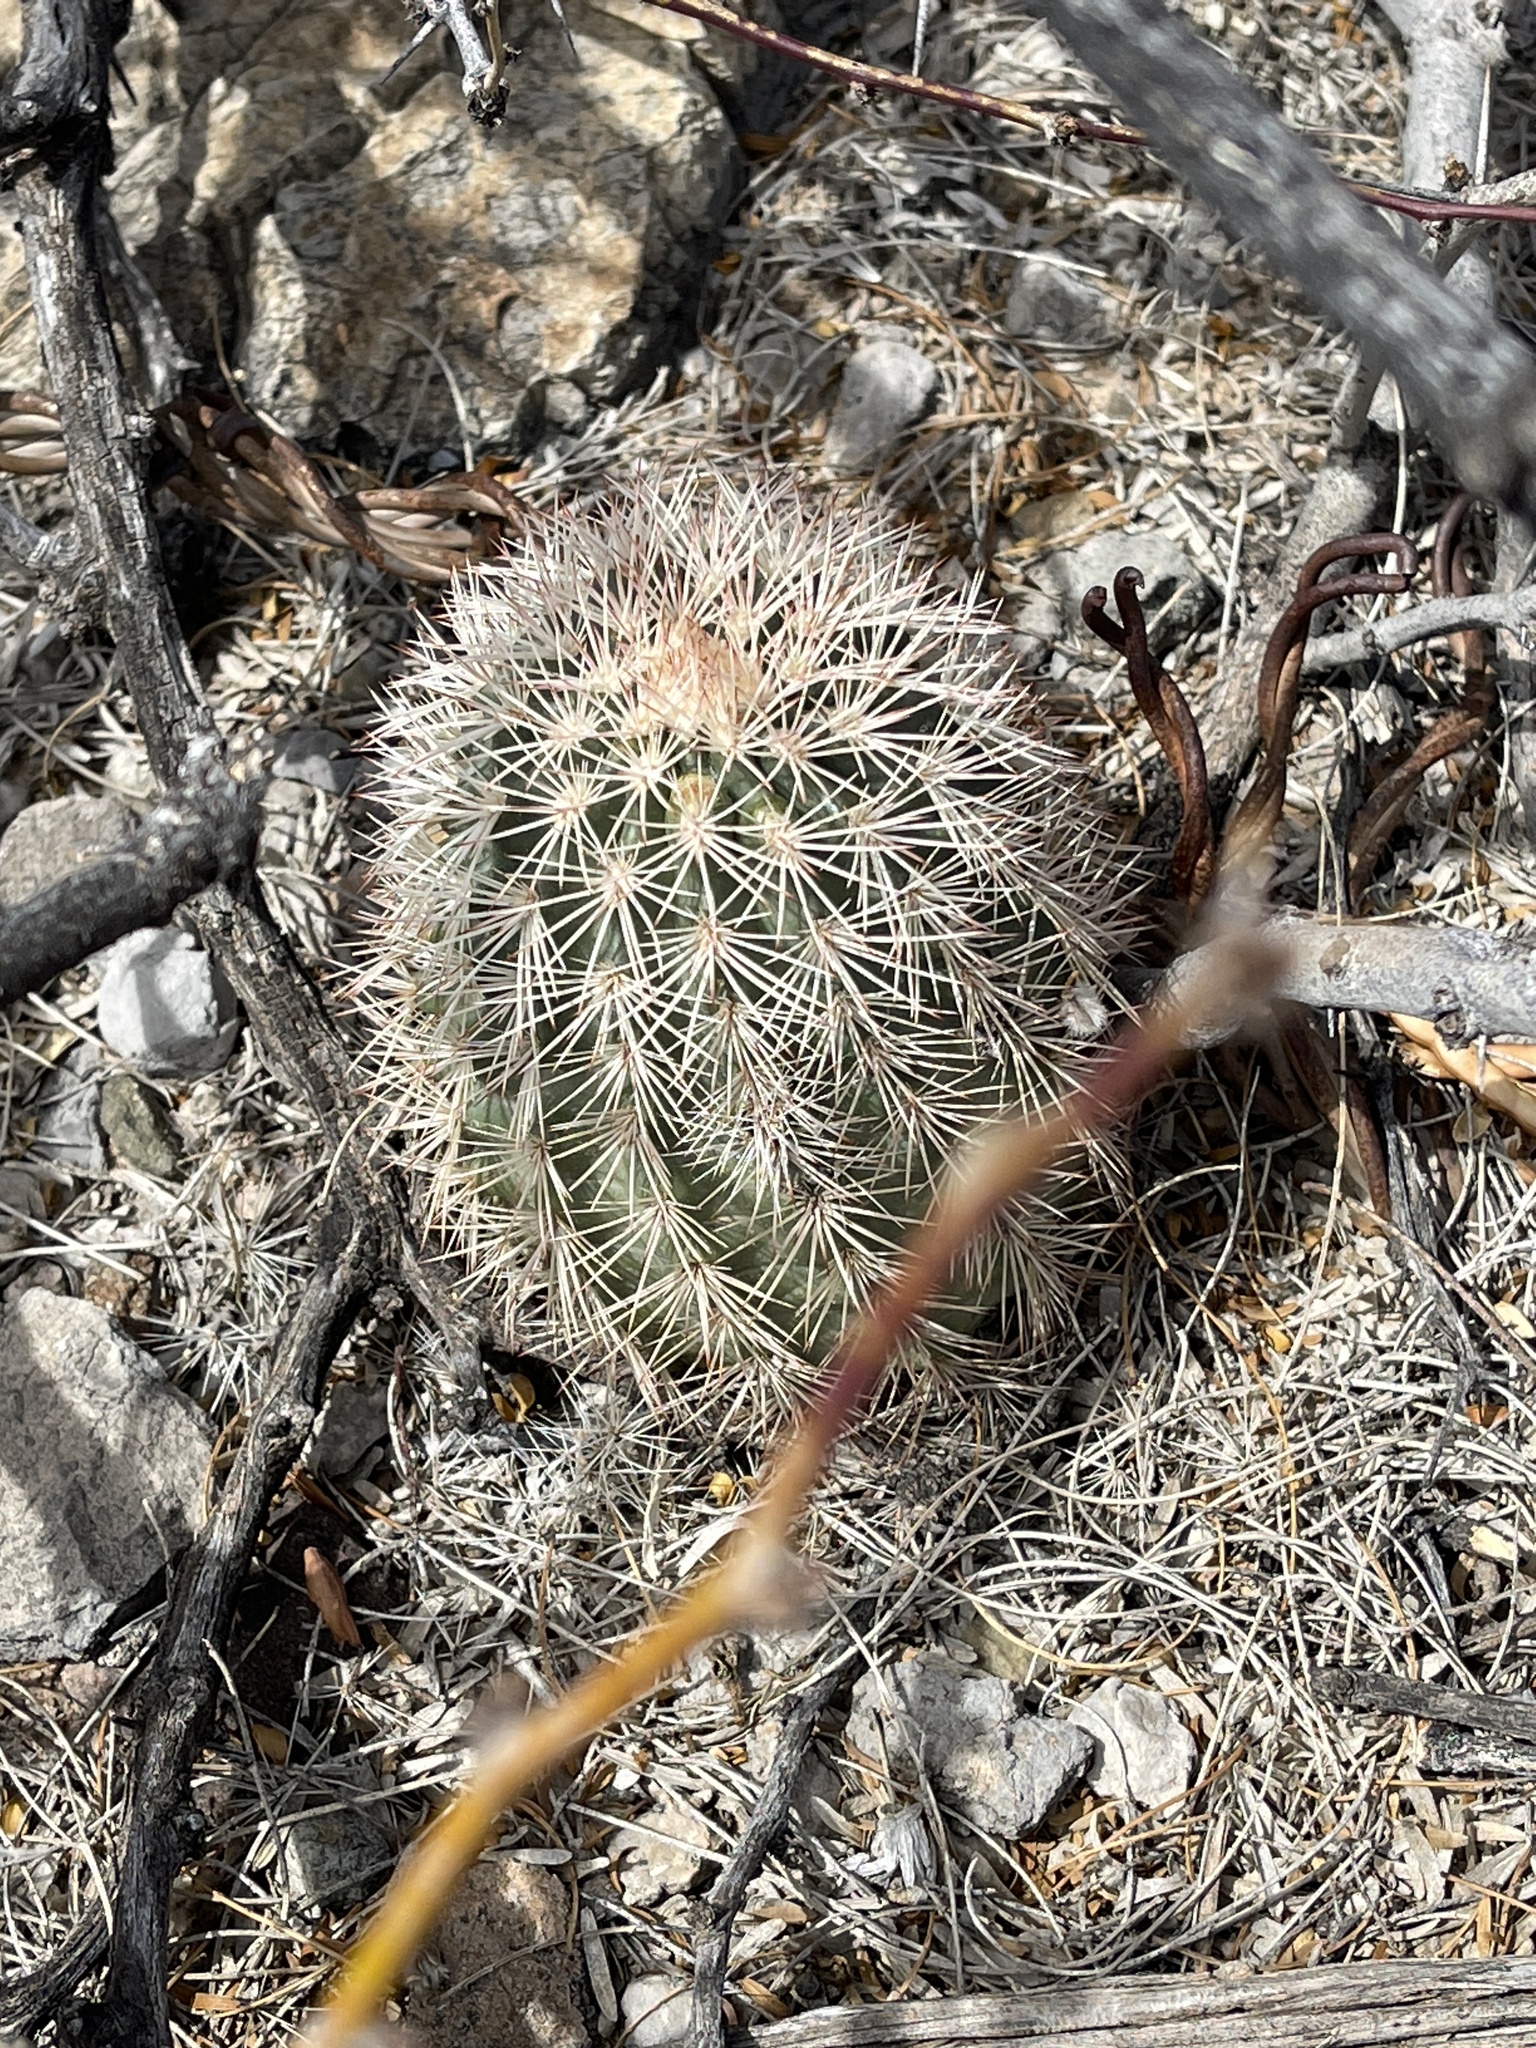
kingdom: Plantae
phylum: Tracheophyta
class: Magnoliopsida
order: Caryophyllales
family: Cactaceae
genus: Echinocereus
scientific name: Echinocereus dasyacanthus
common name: Spiny hedgehog cactus
